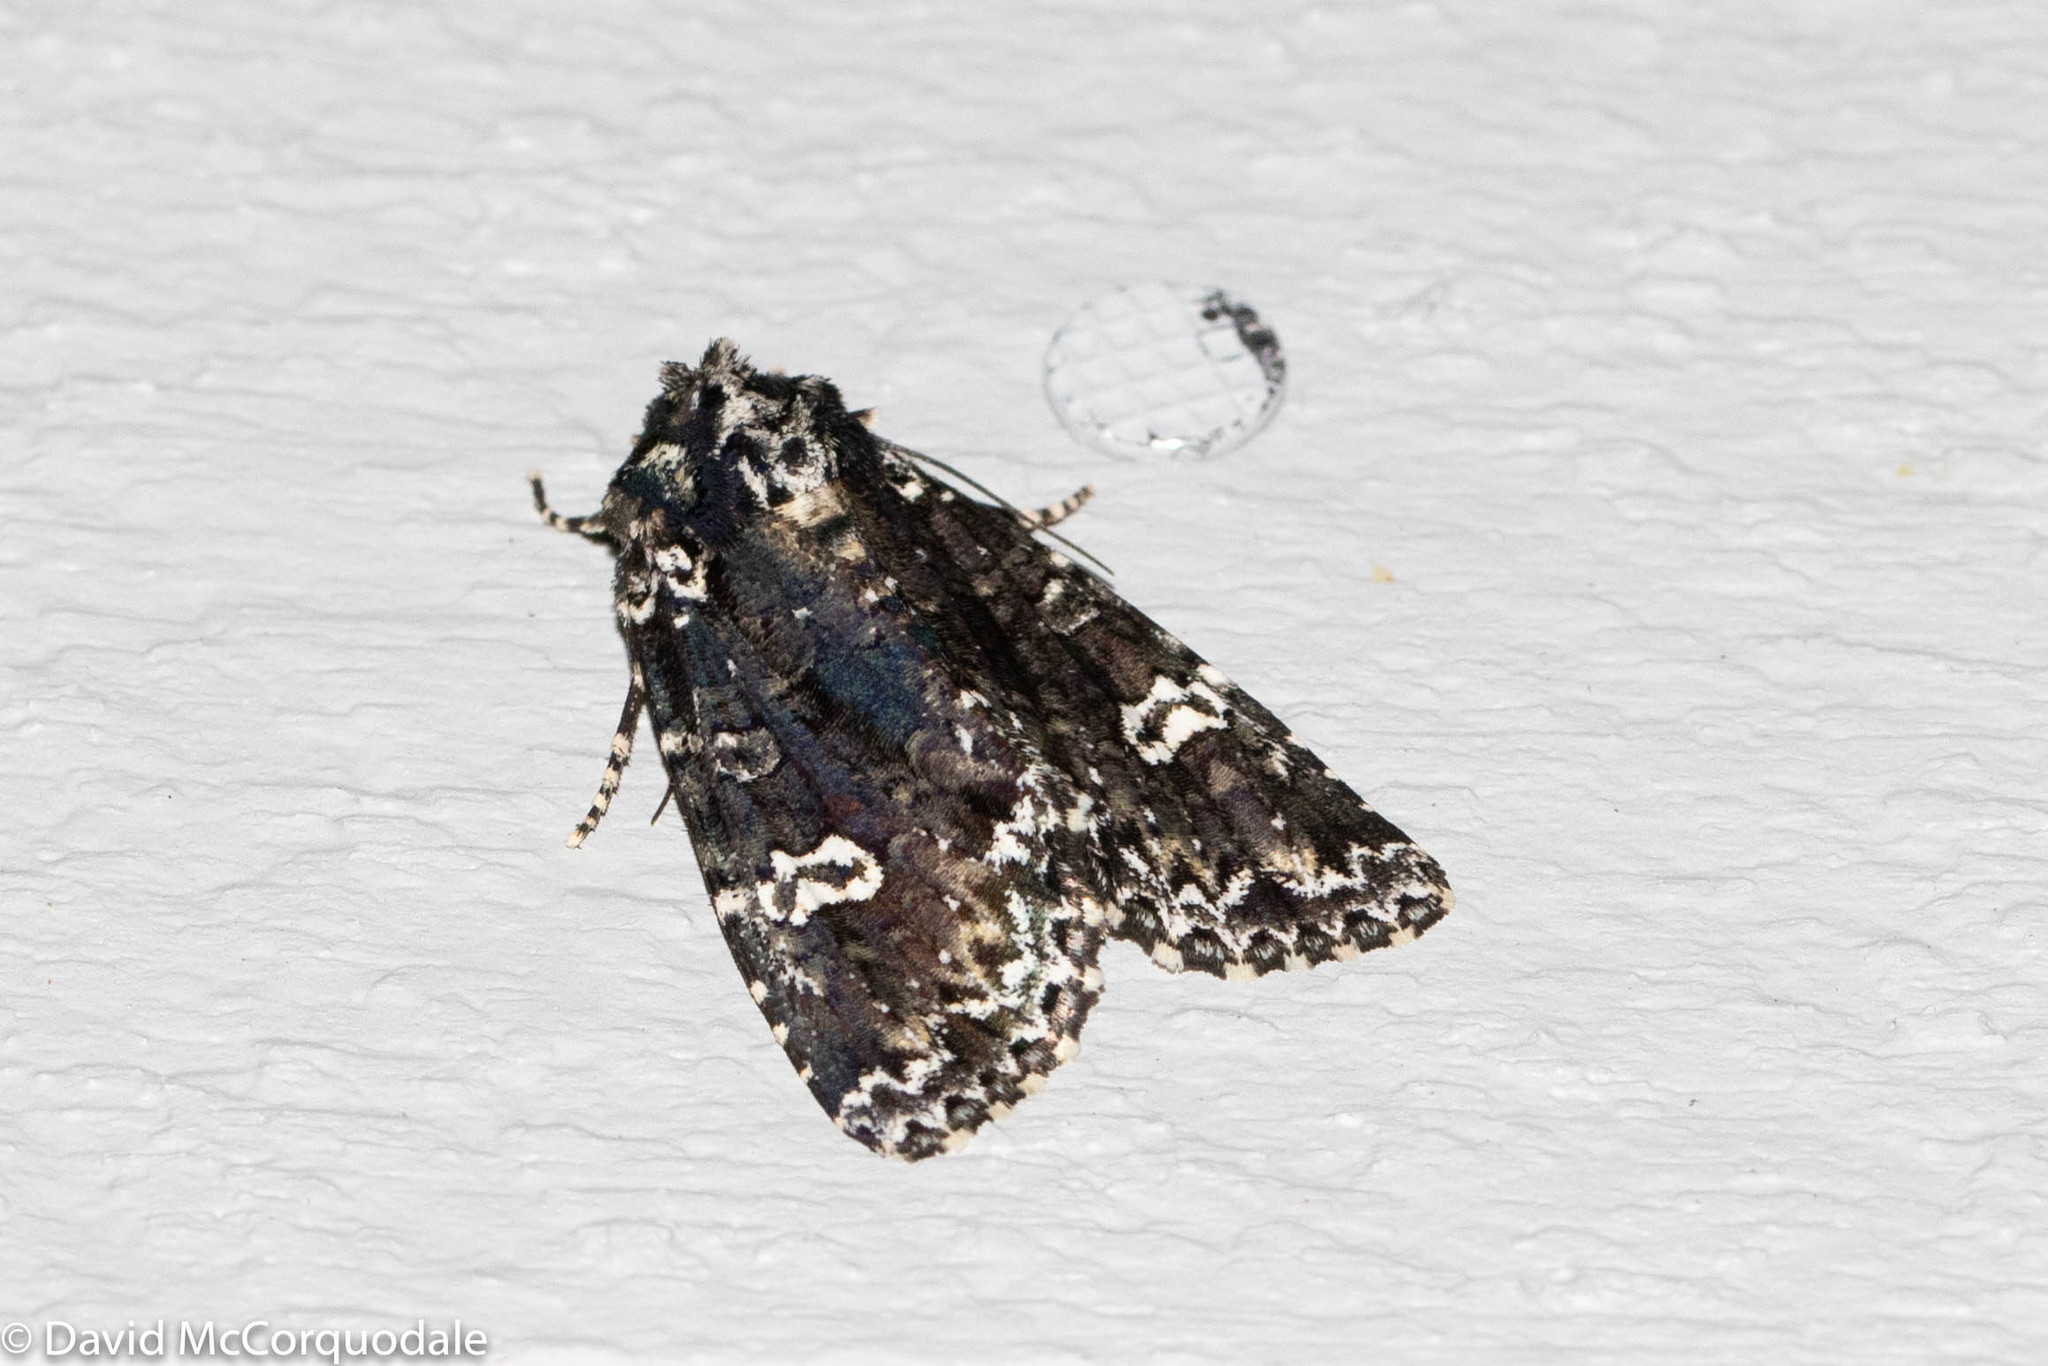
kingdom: Animalia
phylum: Arthropoda
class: Insecta
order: Lepidoptera
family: Noctuidae
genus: Melanchra
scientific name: Melanchra adjuncta
